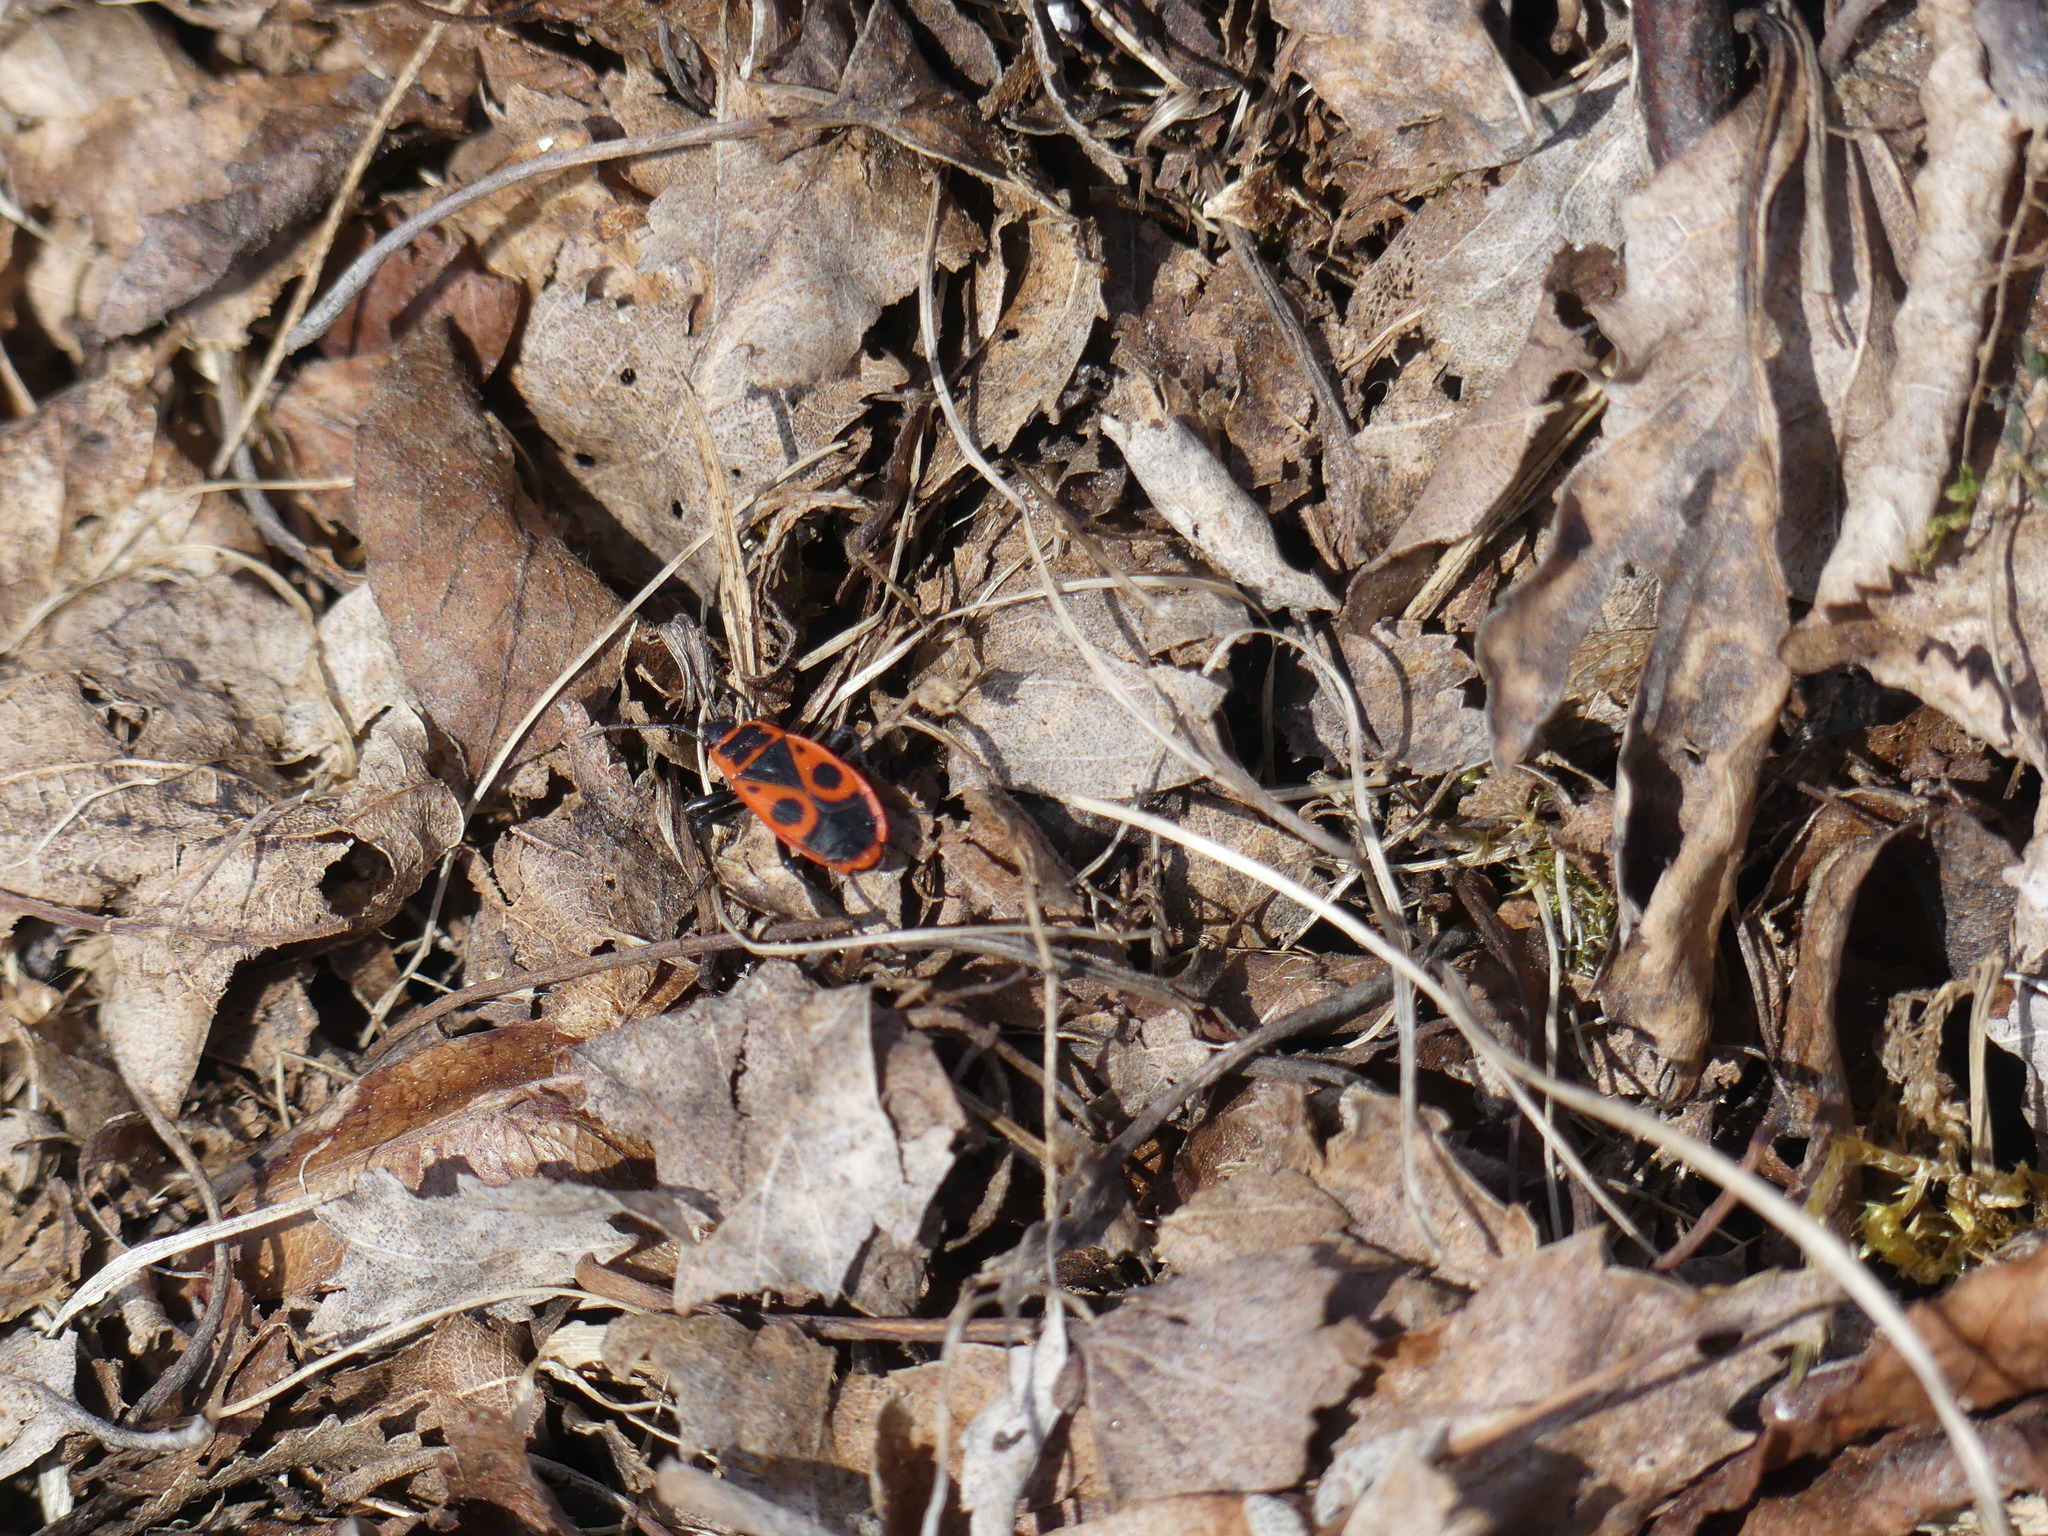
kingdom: Animalia
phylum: Arthropoda
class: Insecta
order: Hemiptera
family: Pyrrhocoridae
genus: Pyrrhocoris
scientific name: Pyrrhocoris apterus
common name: Firebug
